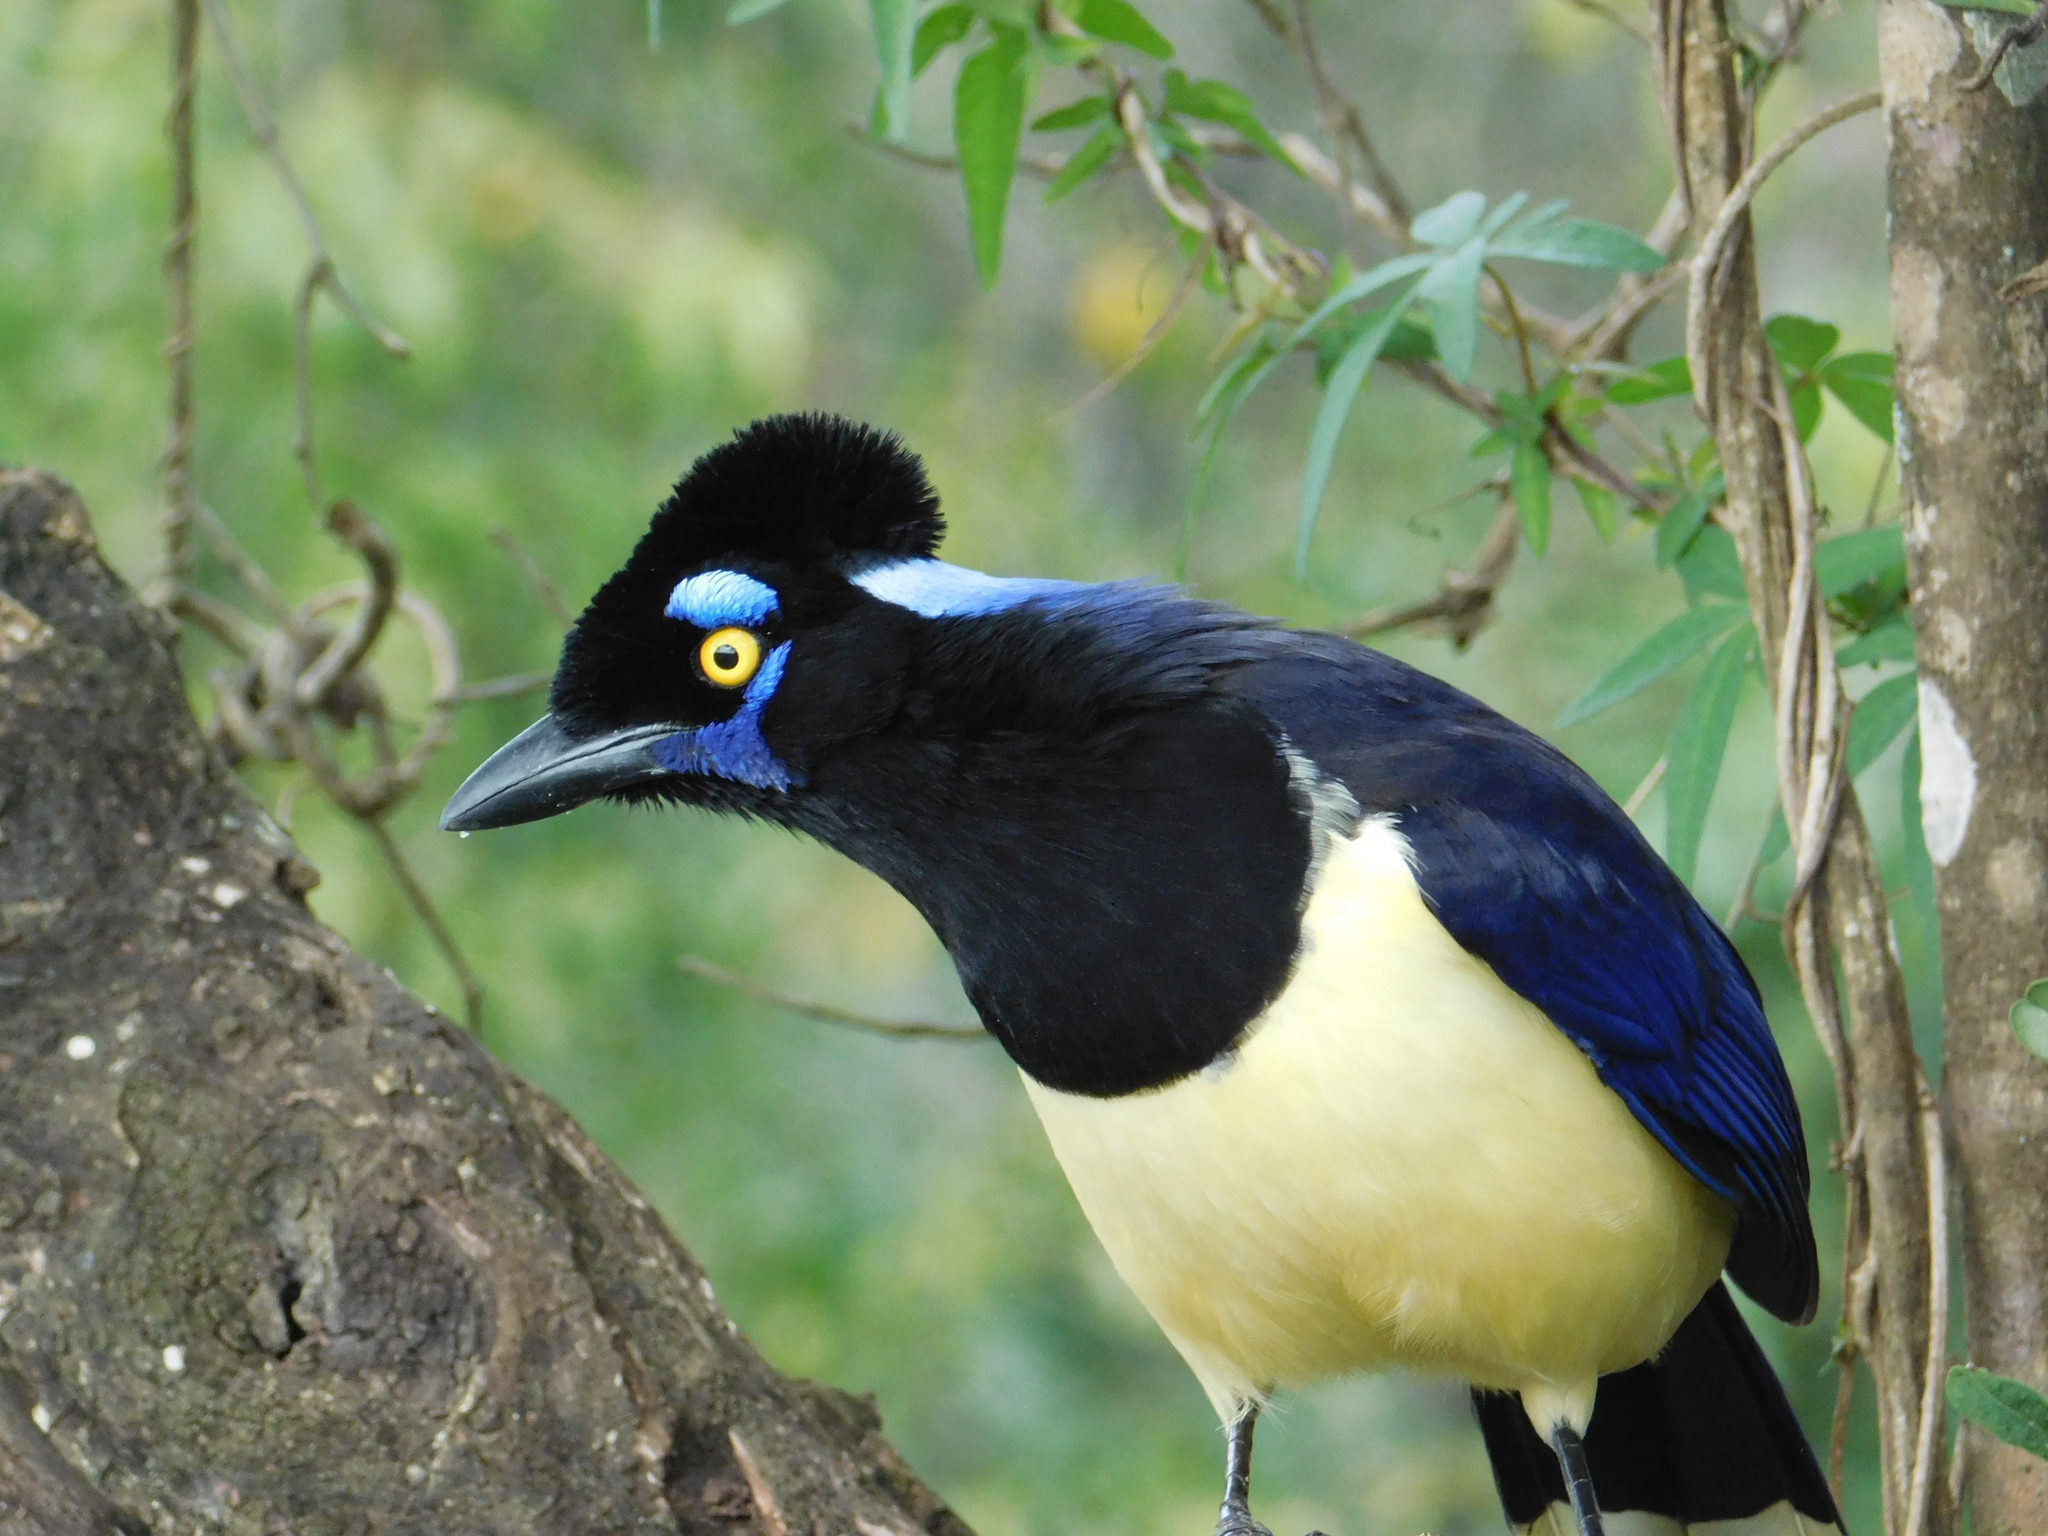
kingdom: Animalia
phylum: Chordata
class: Aves
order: Passeriformes
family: Corvidae
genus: Cyanocorax
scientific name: Cyanocorax chrysops
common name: Plush-crested jay
